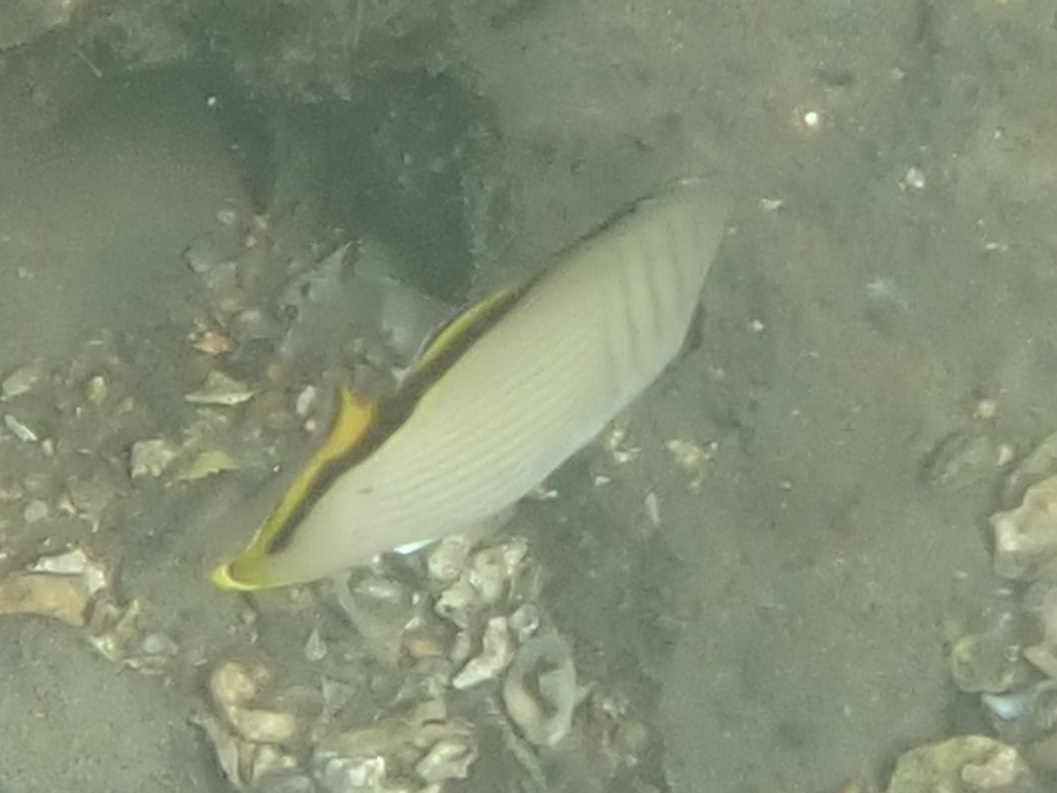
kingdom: Animalia
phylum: Chordata
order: Perciformes
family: Chaetodontidae
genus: Chaetodon
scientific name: Chaetodon vagabundus
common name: Vagabond butterflyfish
